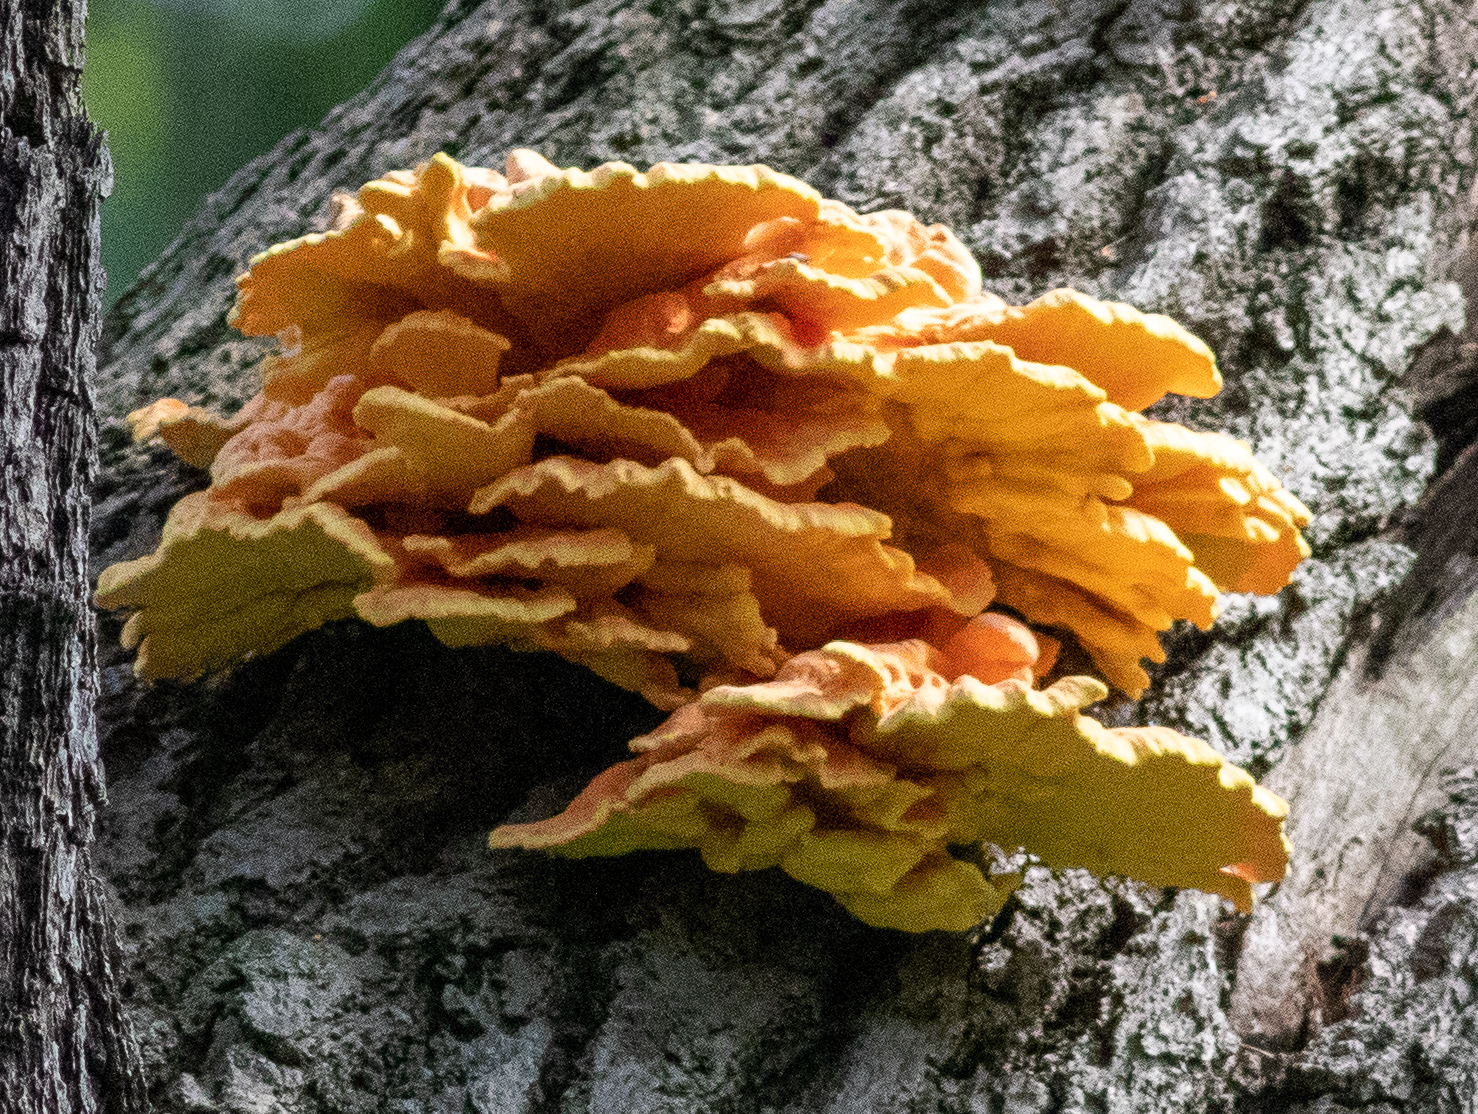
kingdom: Fungi
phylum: Basidiomycota
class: Agaricomycetes
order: Polyporales
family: Laetiporaceae
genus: Laetiporus
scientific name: Laetiporus sulphureus
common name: Chicken of the woods
